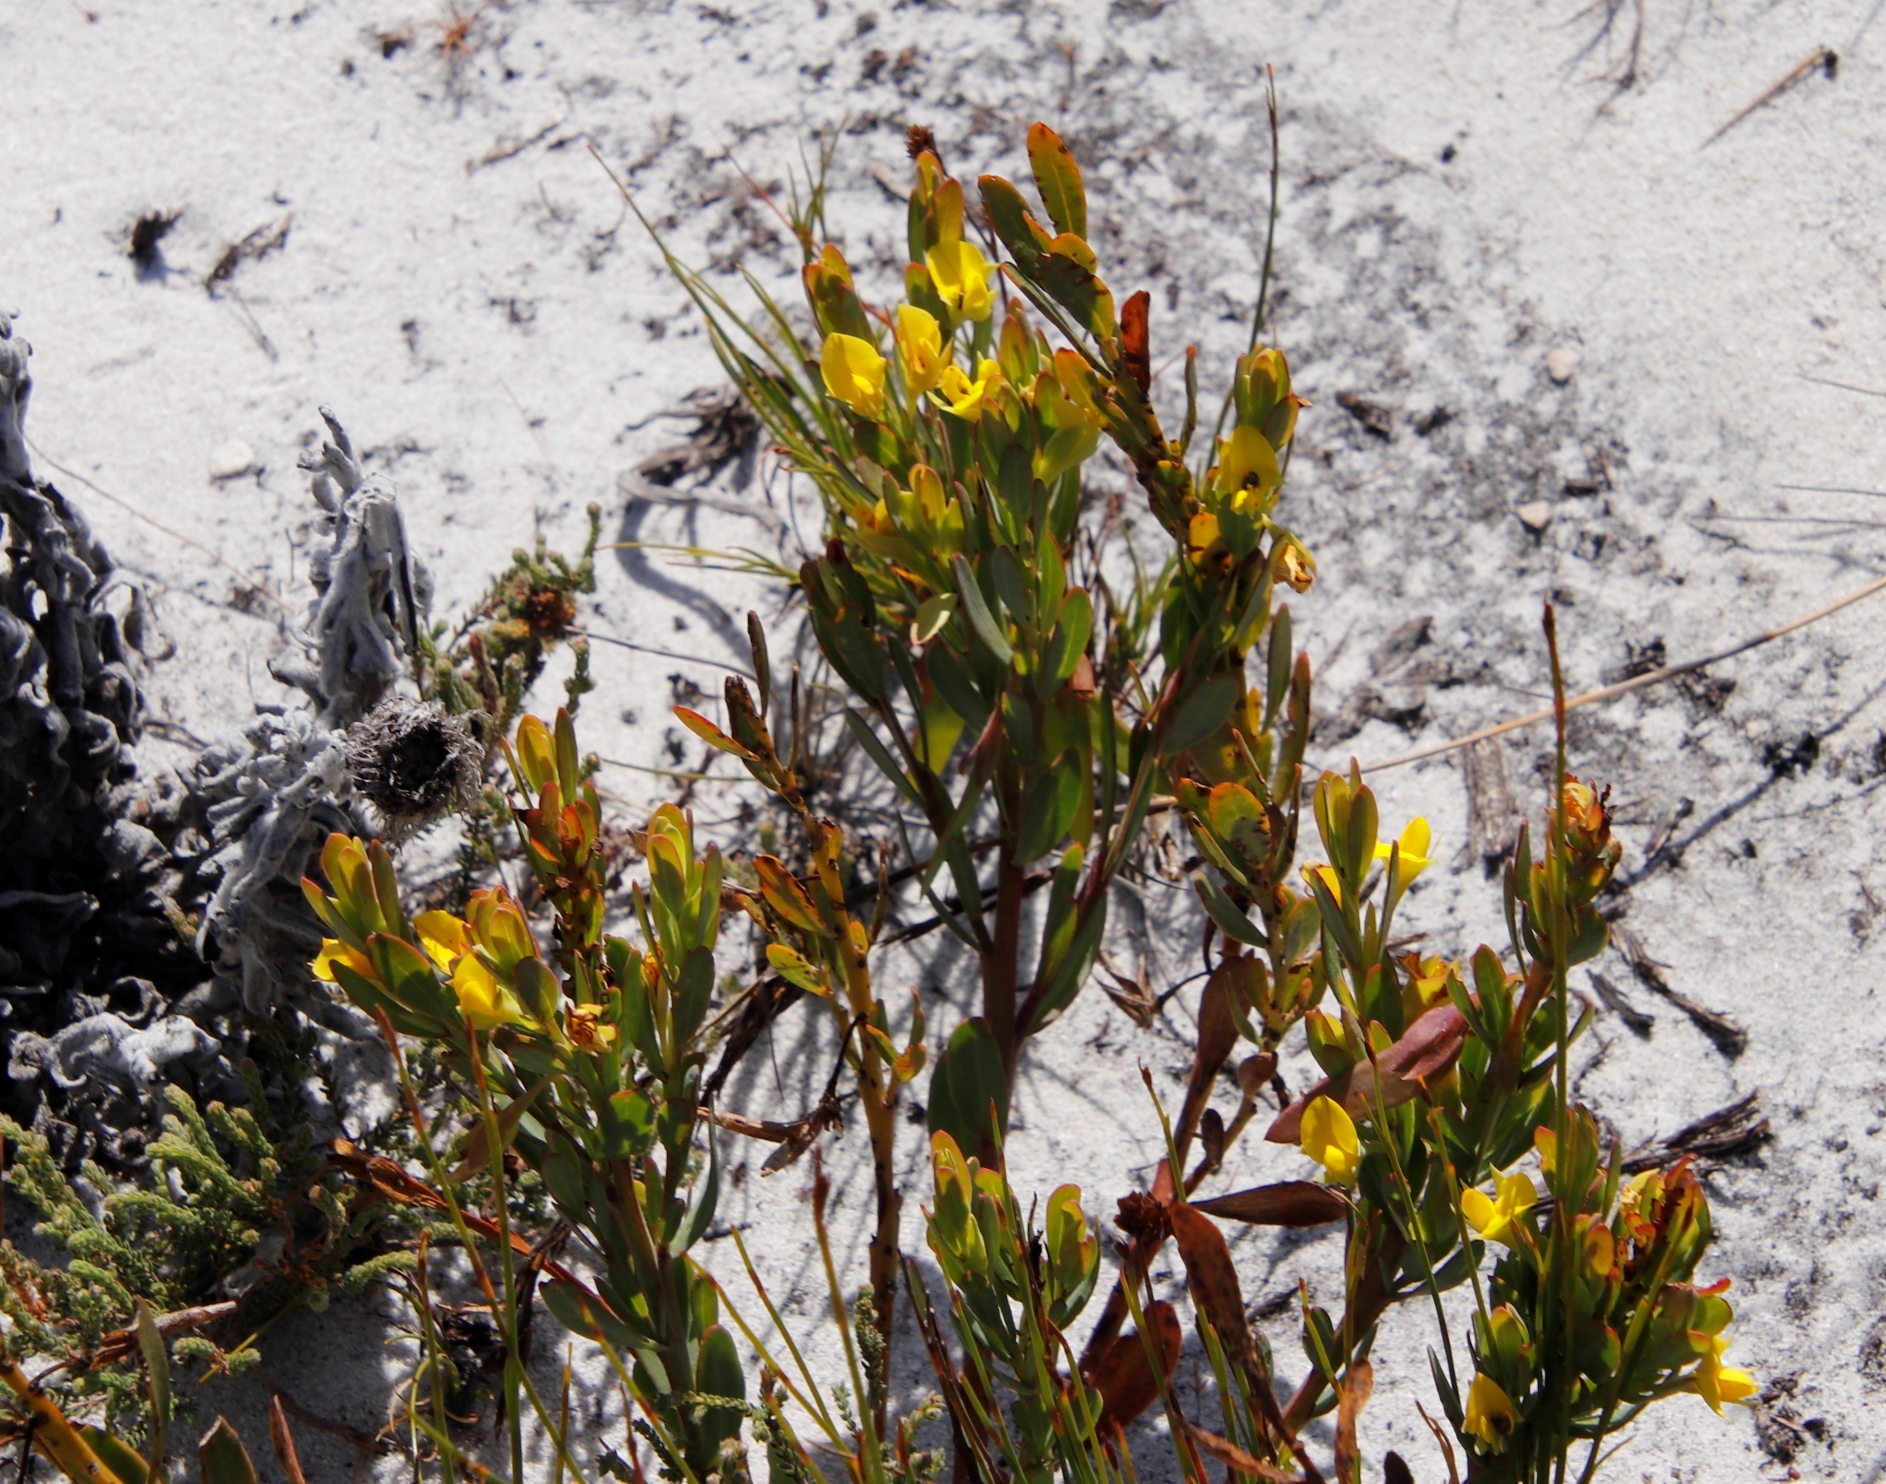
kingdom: Plantae
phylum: Tracheophyta
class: Magnoliopsida
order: Fabales
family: Fabaceae
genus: Rafnia
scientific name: Rafnia crassifolia
